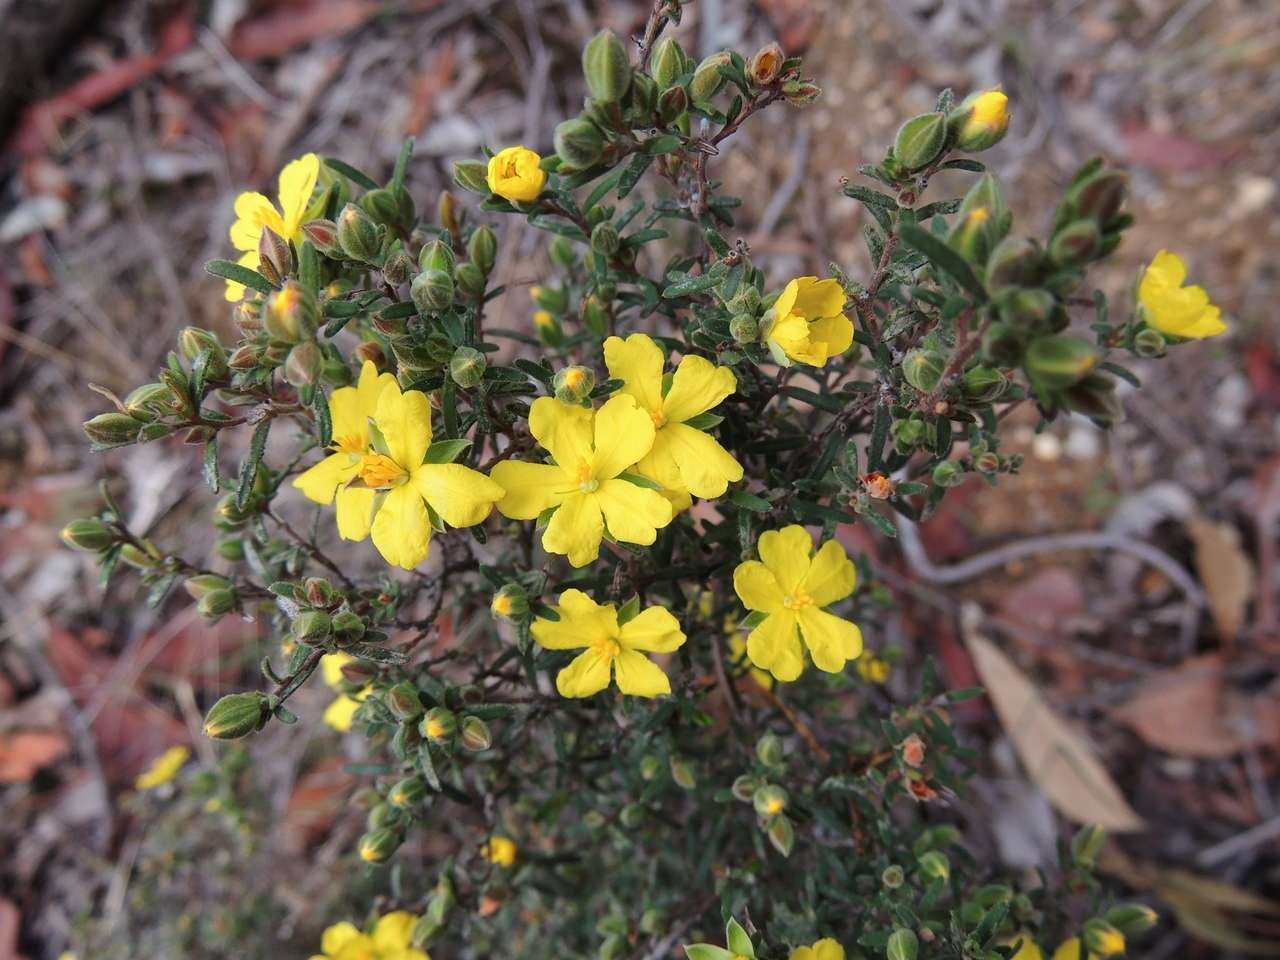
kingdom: Plantae
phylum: Tracheophyta
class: Magnoliopsida
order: Dilleniales
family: Dilleniaceae
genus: Hibbertia
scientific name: Hibbertia riparia
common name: Erect guinea-flower
